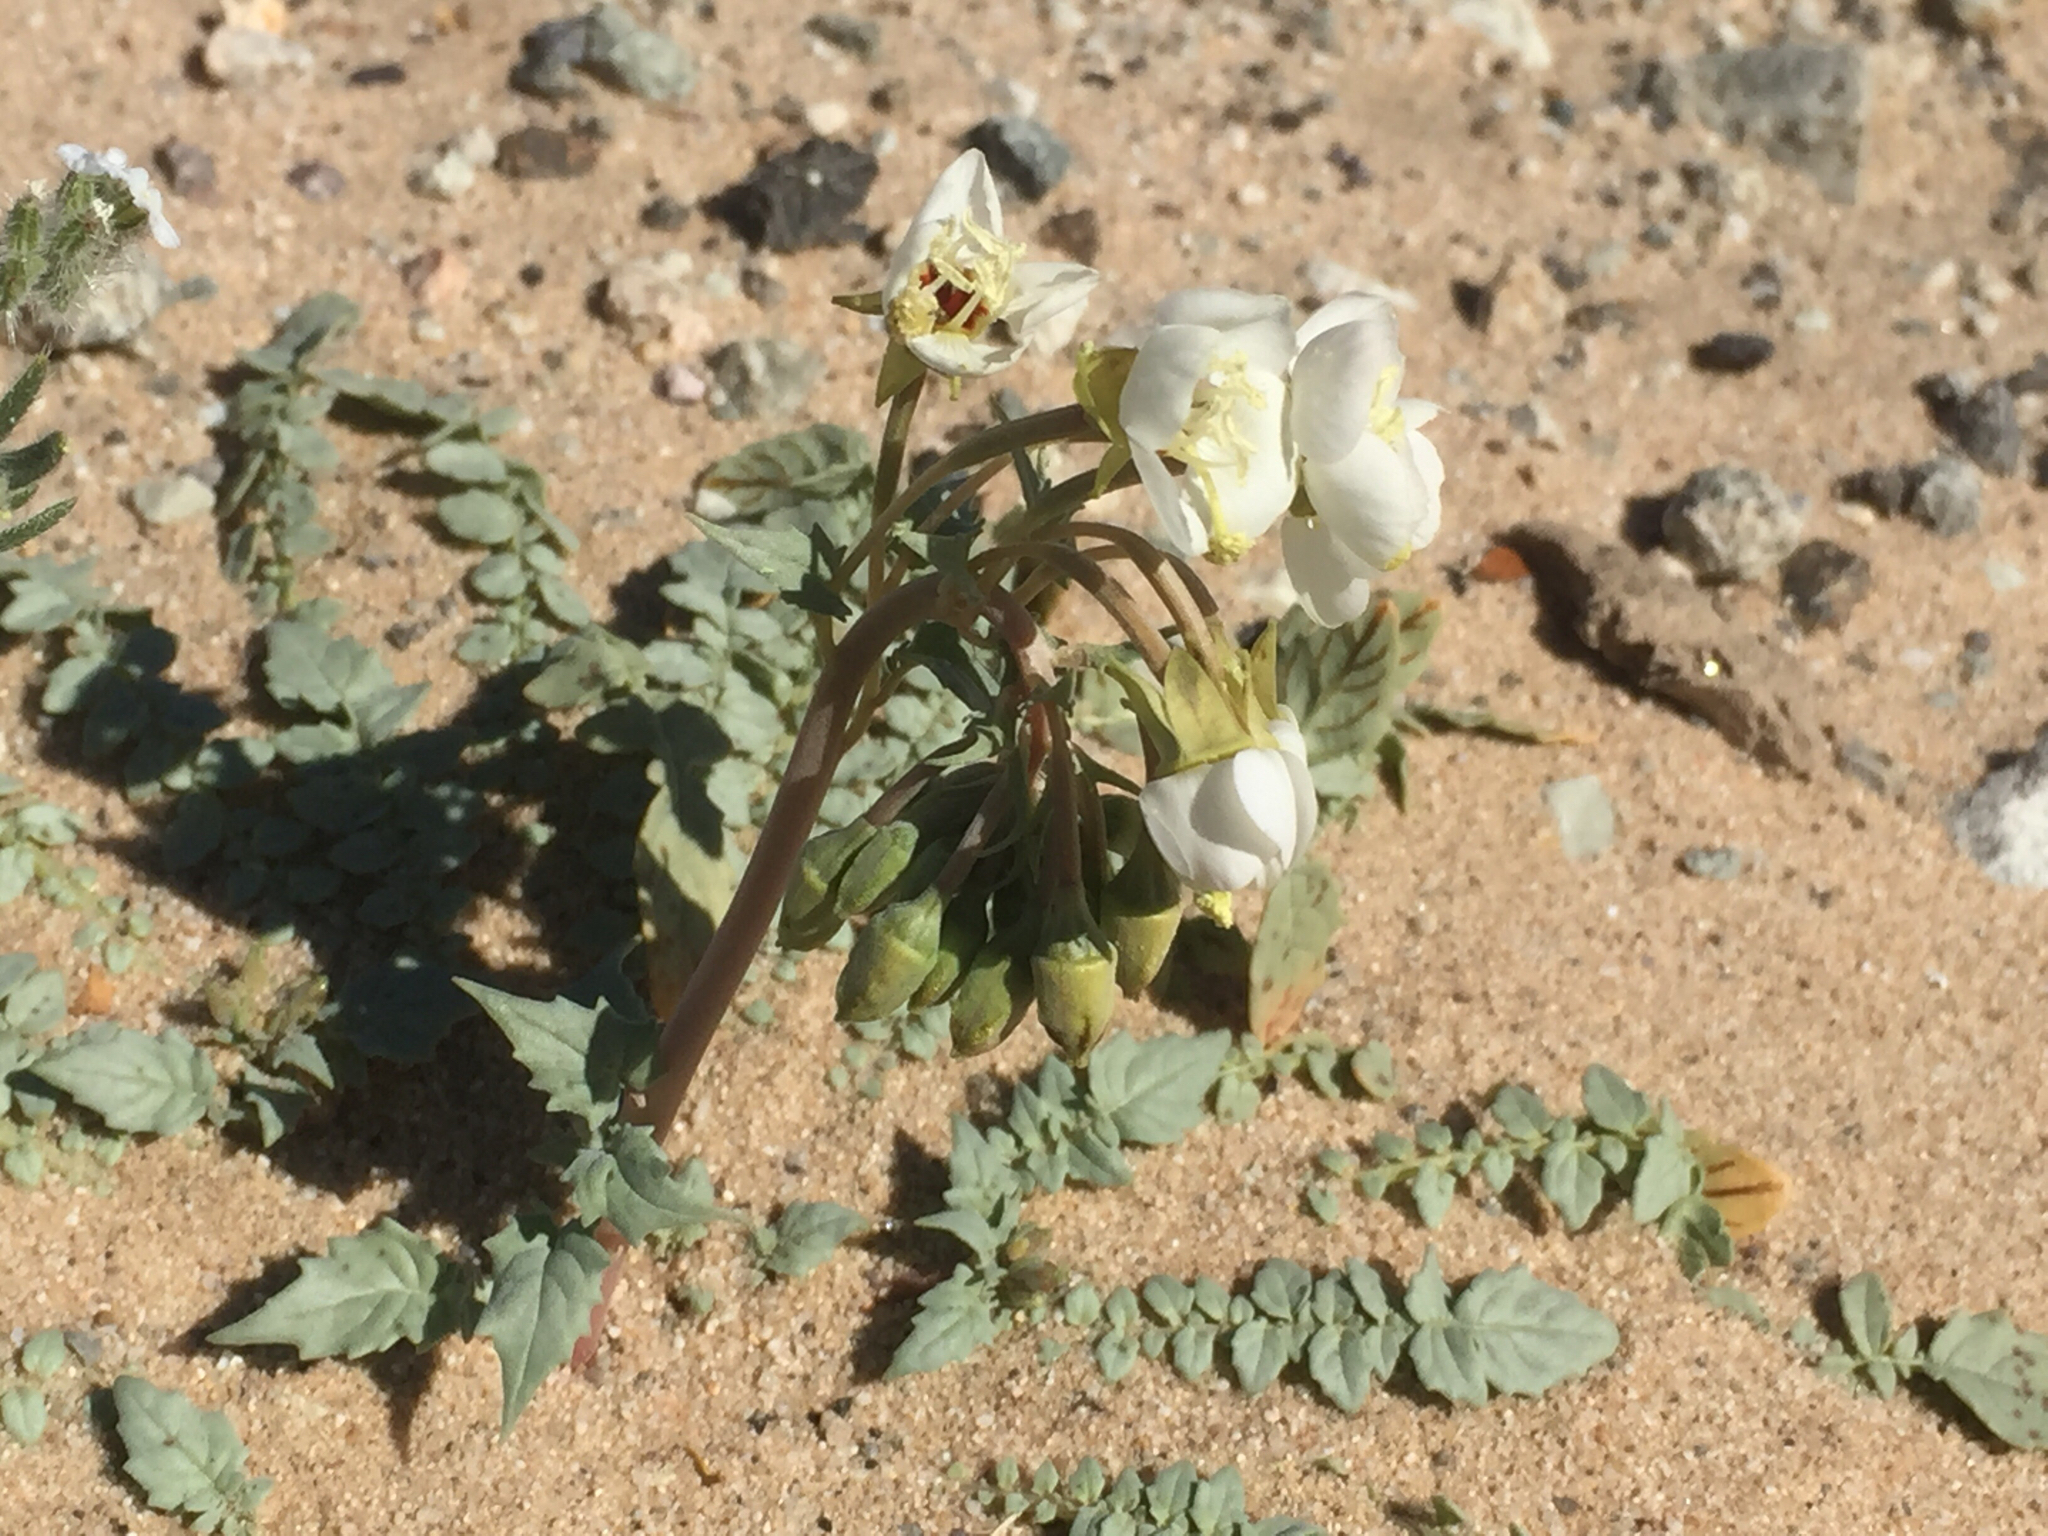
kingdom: Plantae
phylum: Tracheophyta
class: Magnoliopsida
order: Myrtales
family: Onagraceae
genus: Chylismia
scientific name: Chylismia claviformis
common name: Browneyes
